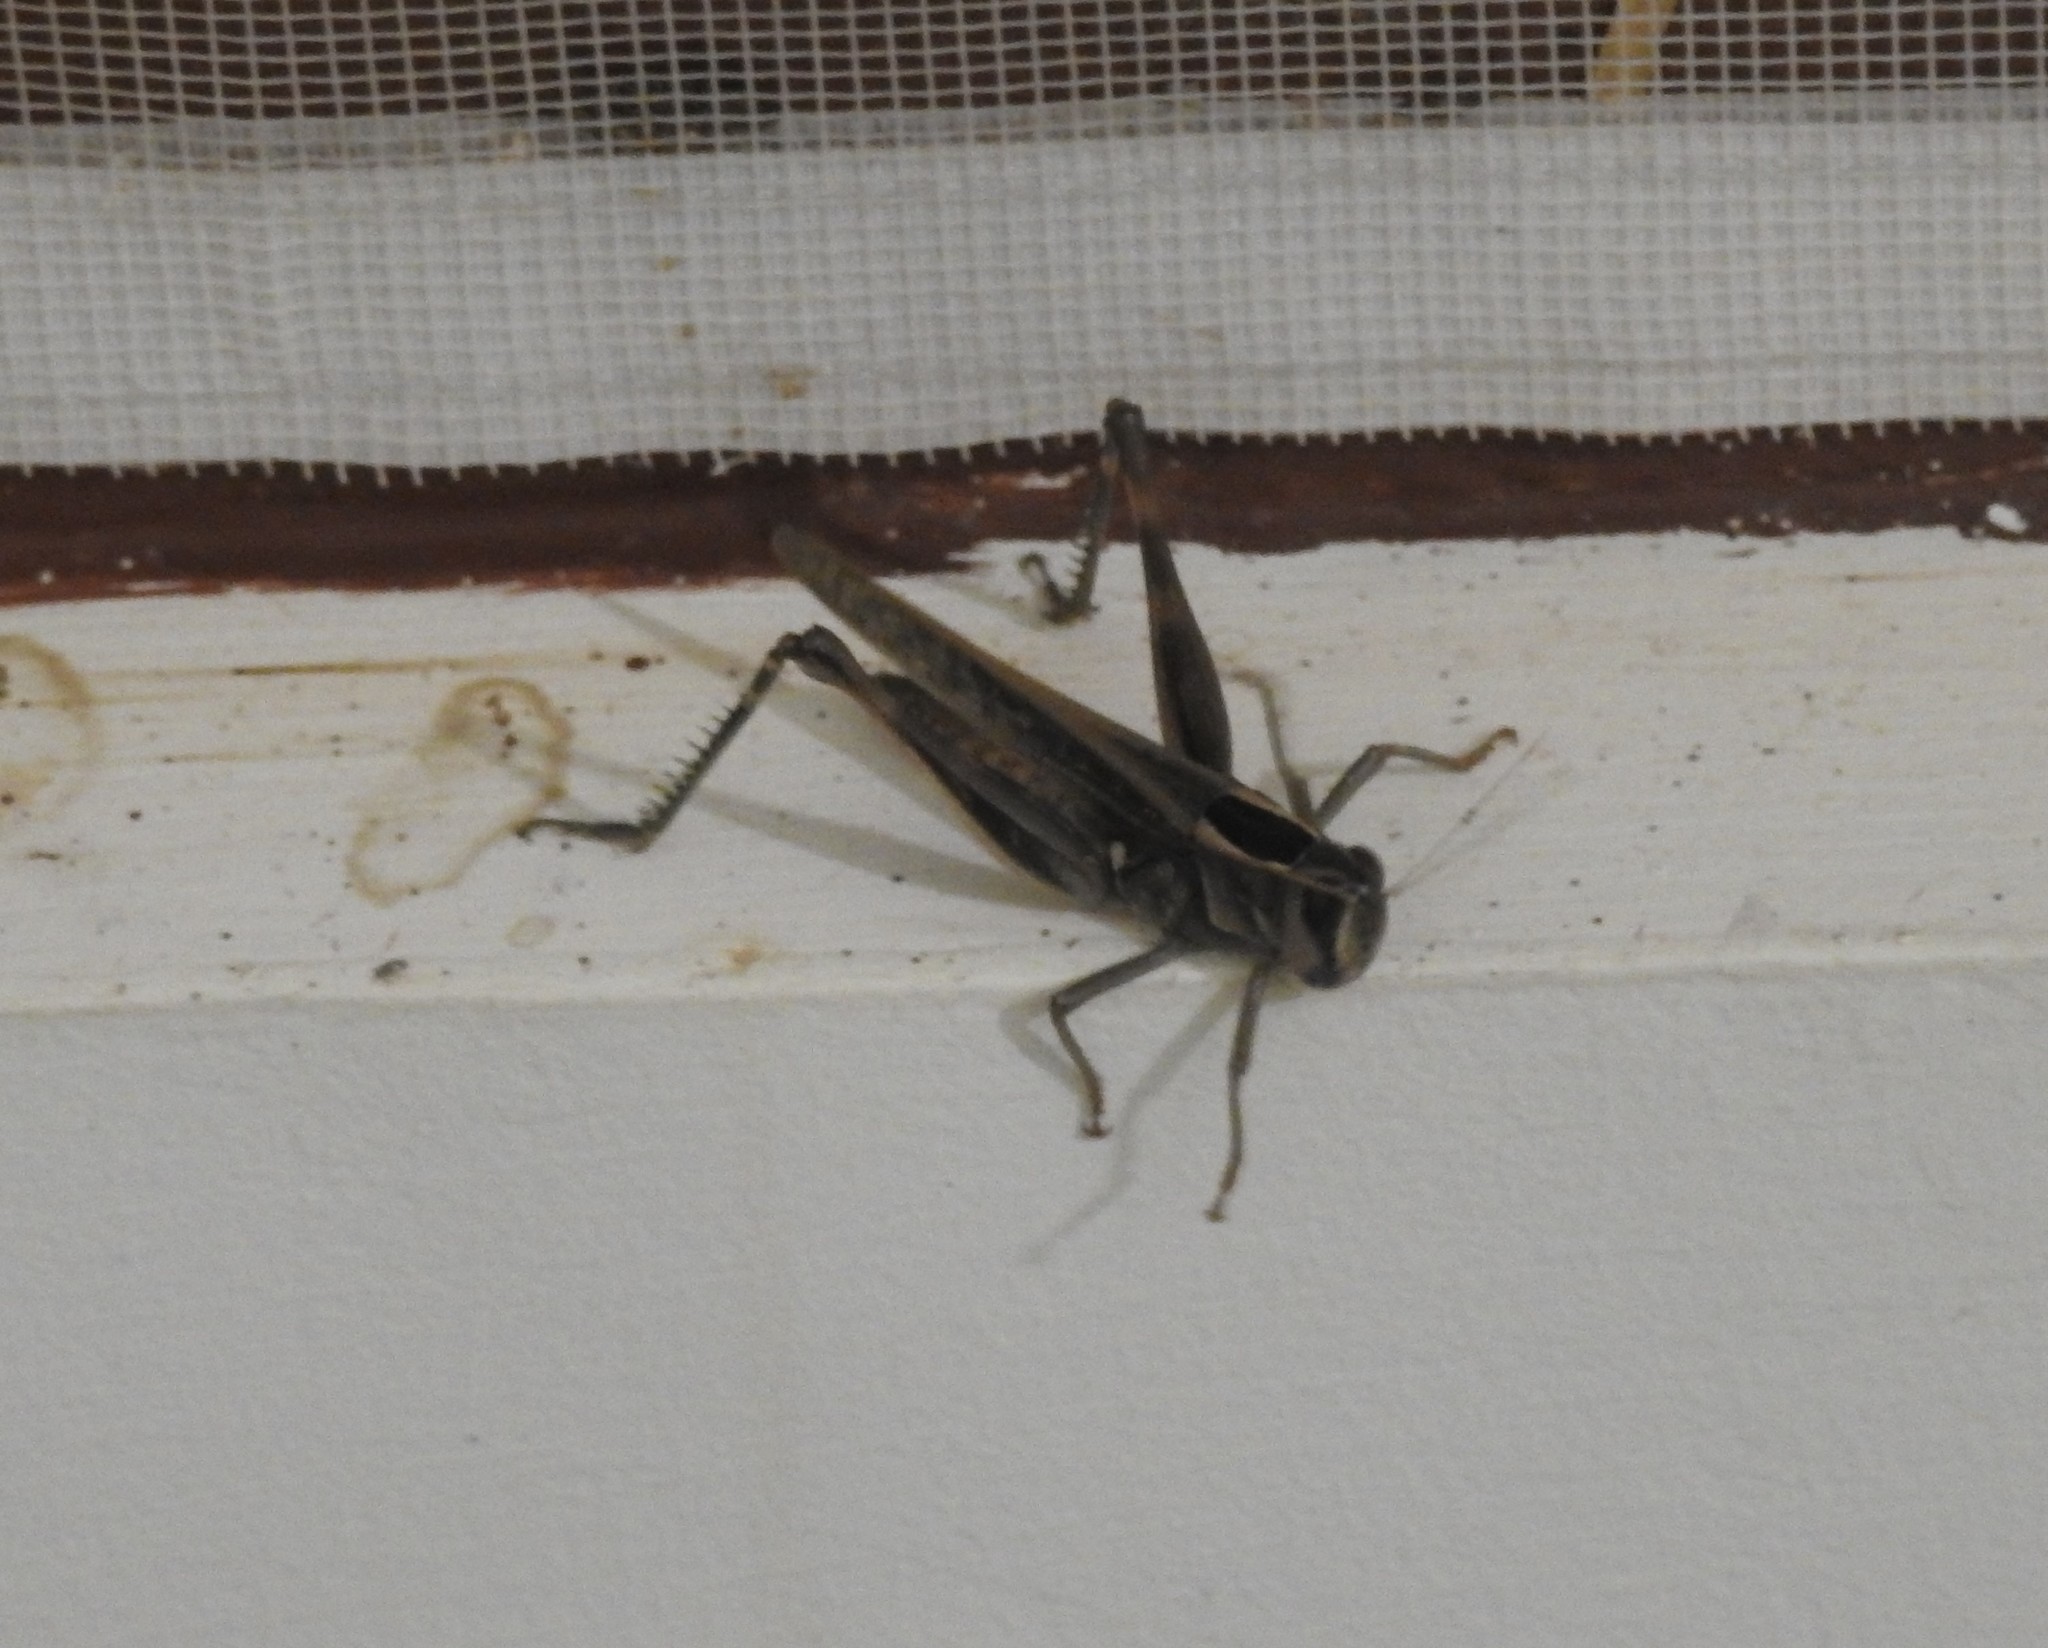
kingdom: Animalia
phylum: Arthropoda
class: Insecta
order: Orthoptera
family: Acrididae
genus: Eyprepocnemis
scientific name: Eyprepocnemis alacris
